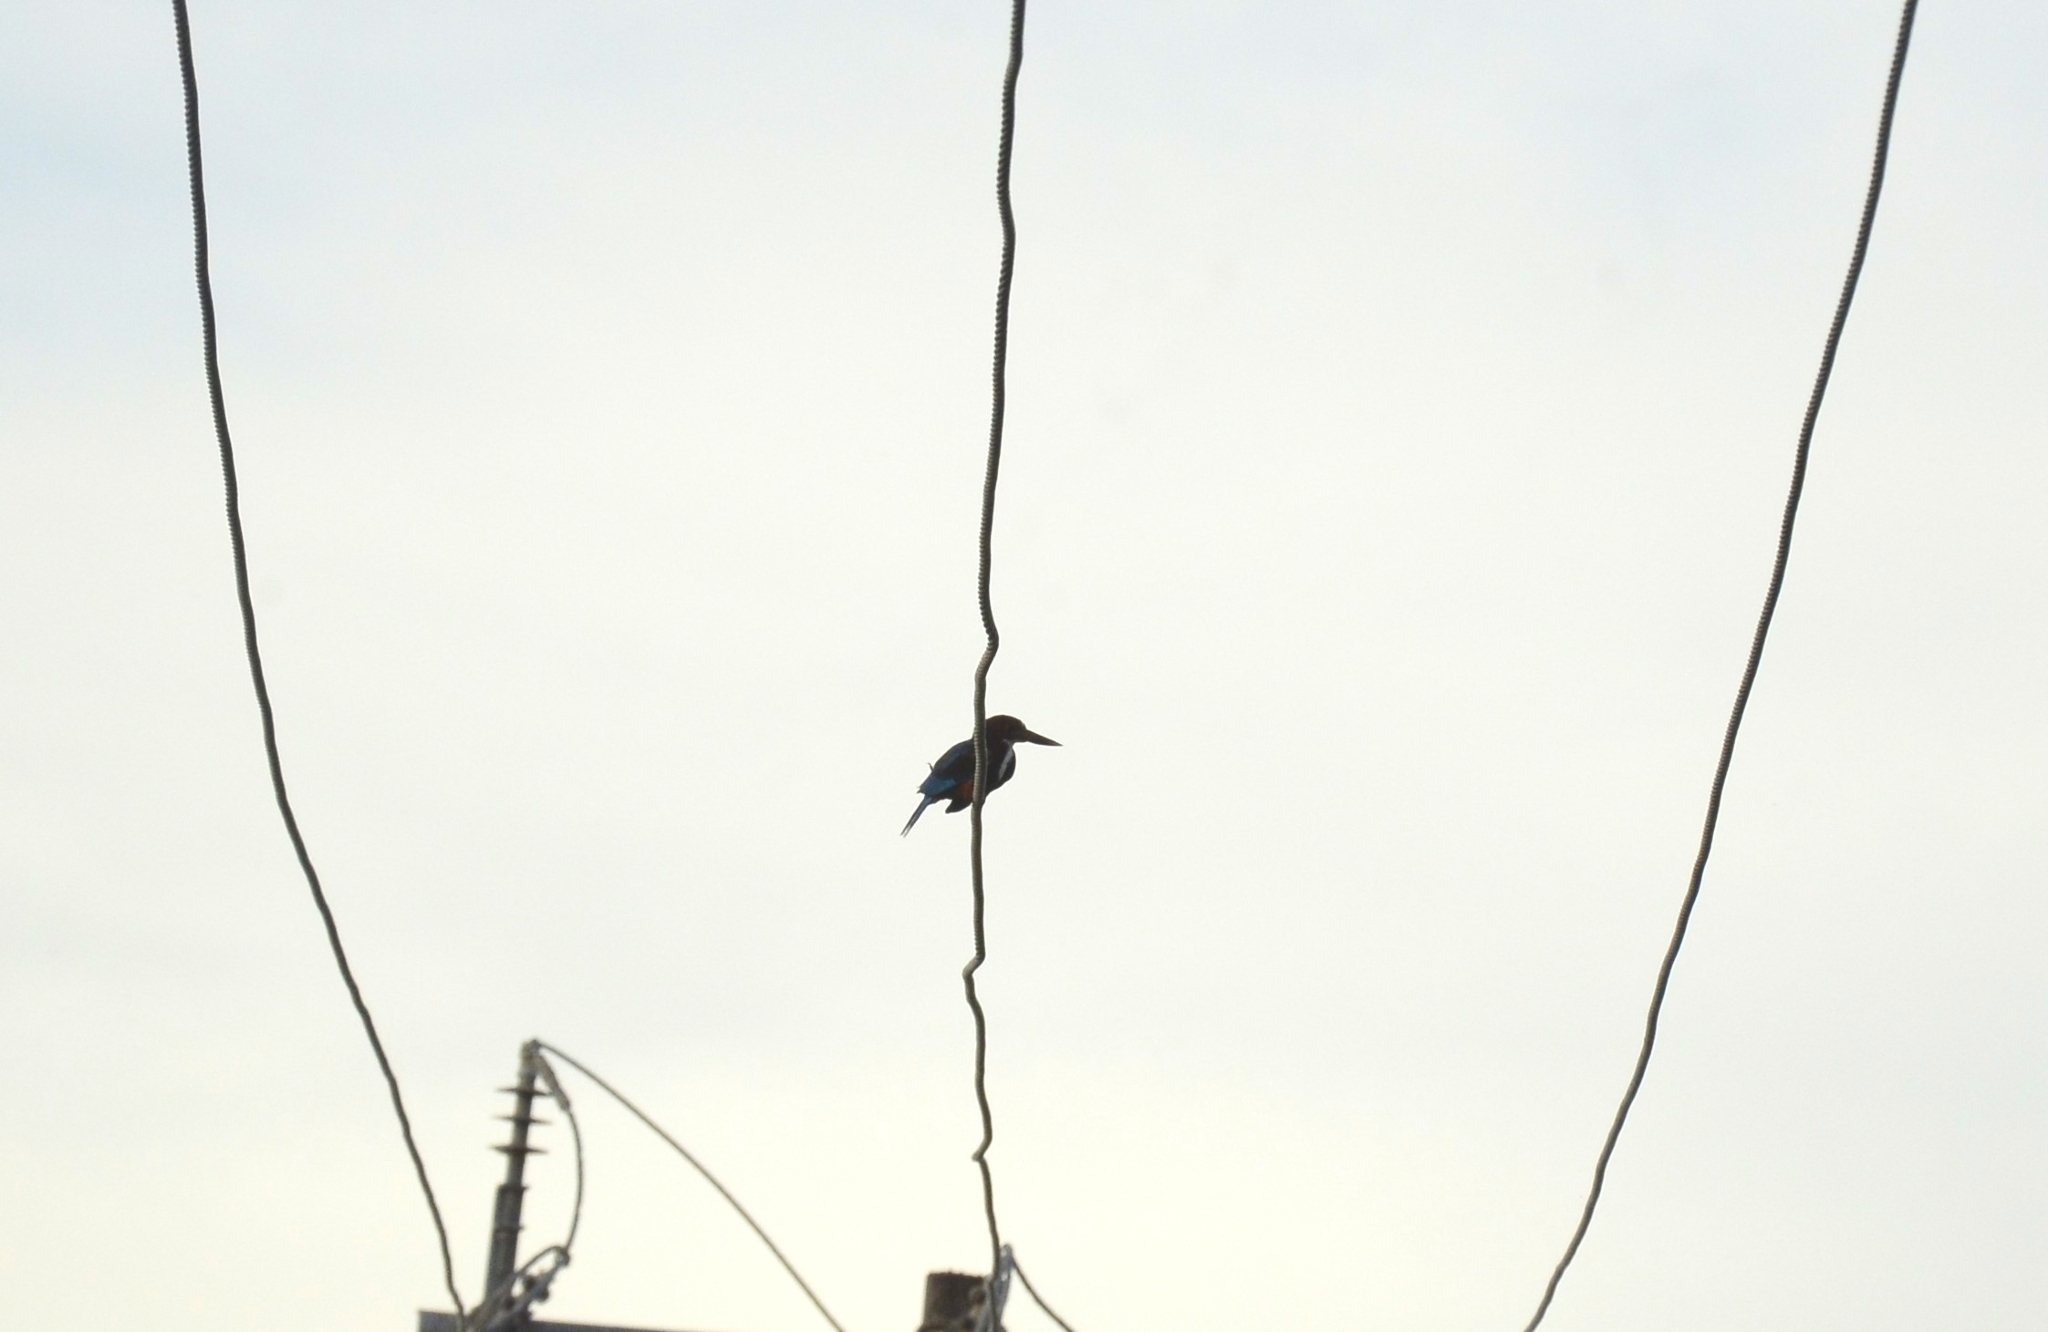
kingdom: Animalia
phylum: Chordata
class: Aves
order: Coraciiformes
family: Alcedinidae
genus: Halcyon
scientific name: Halcyon smyrnensis
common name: White-throated kingfisher
